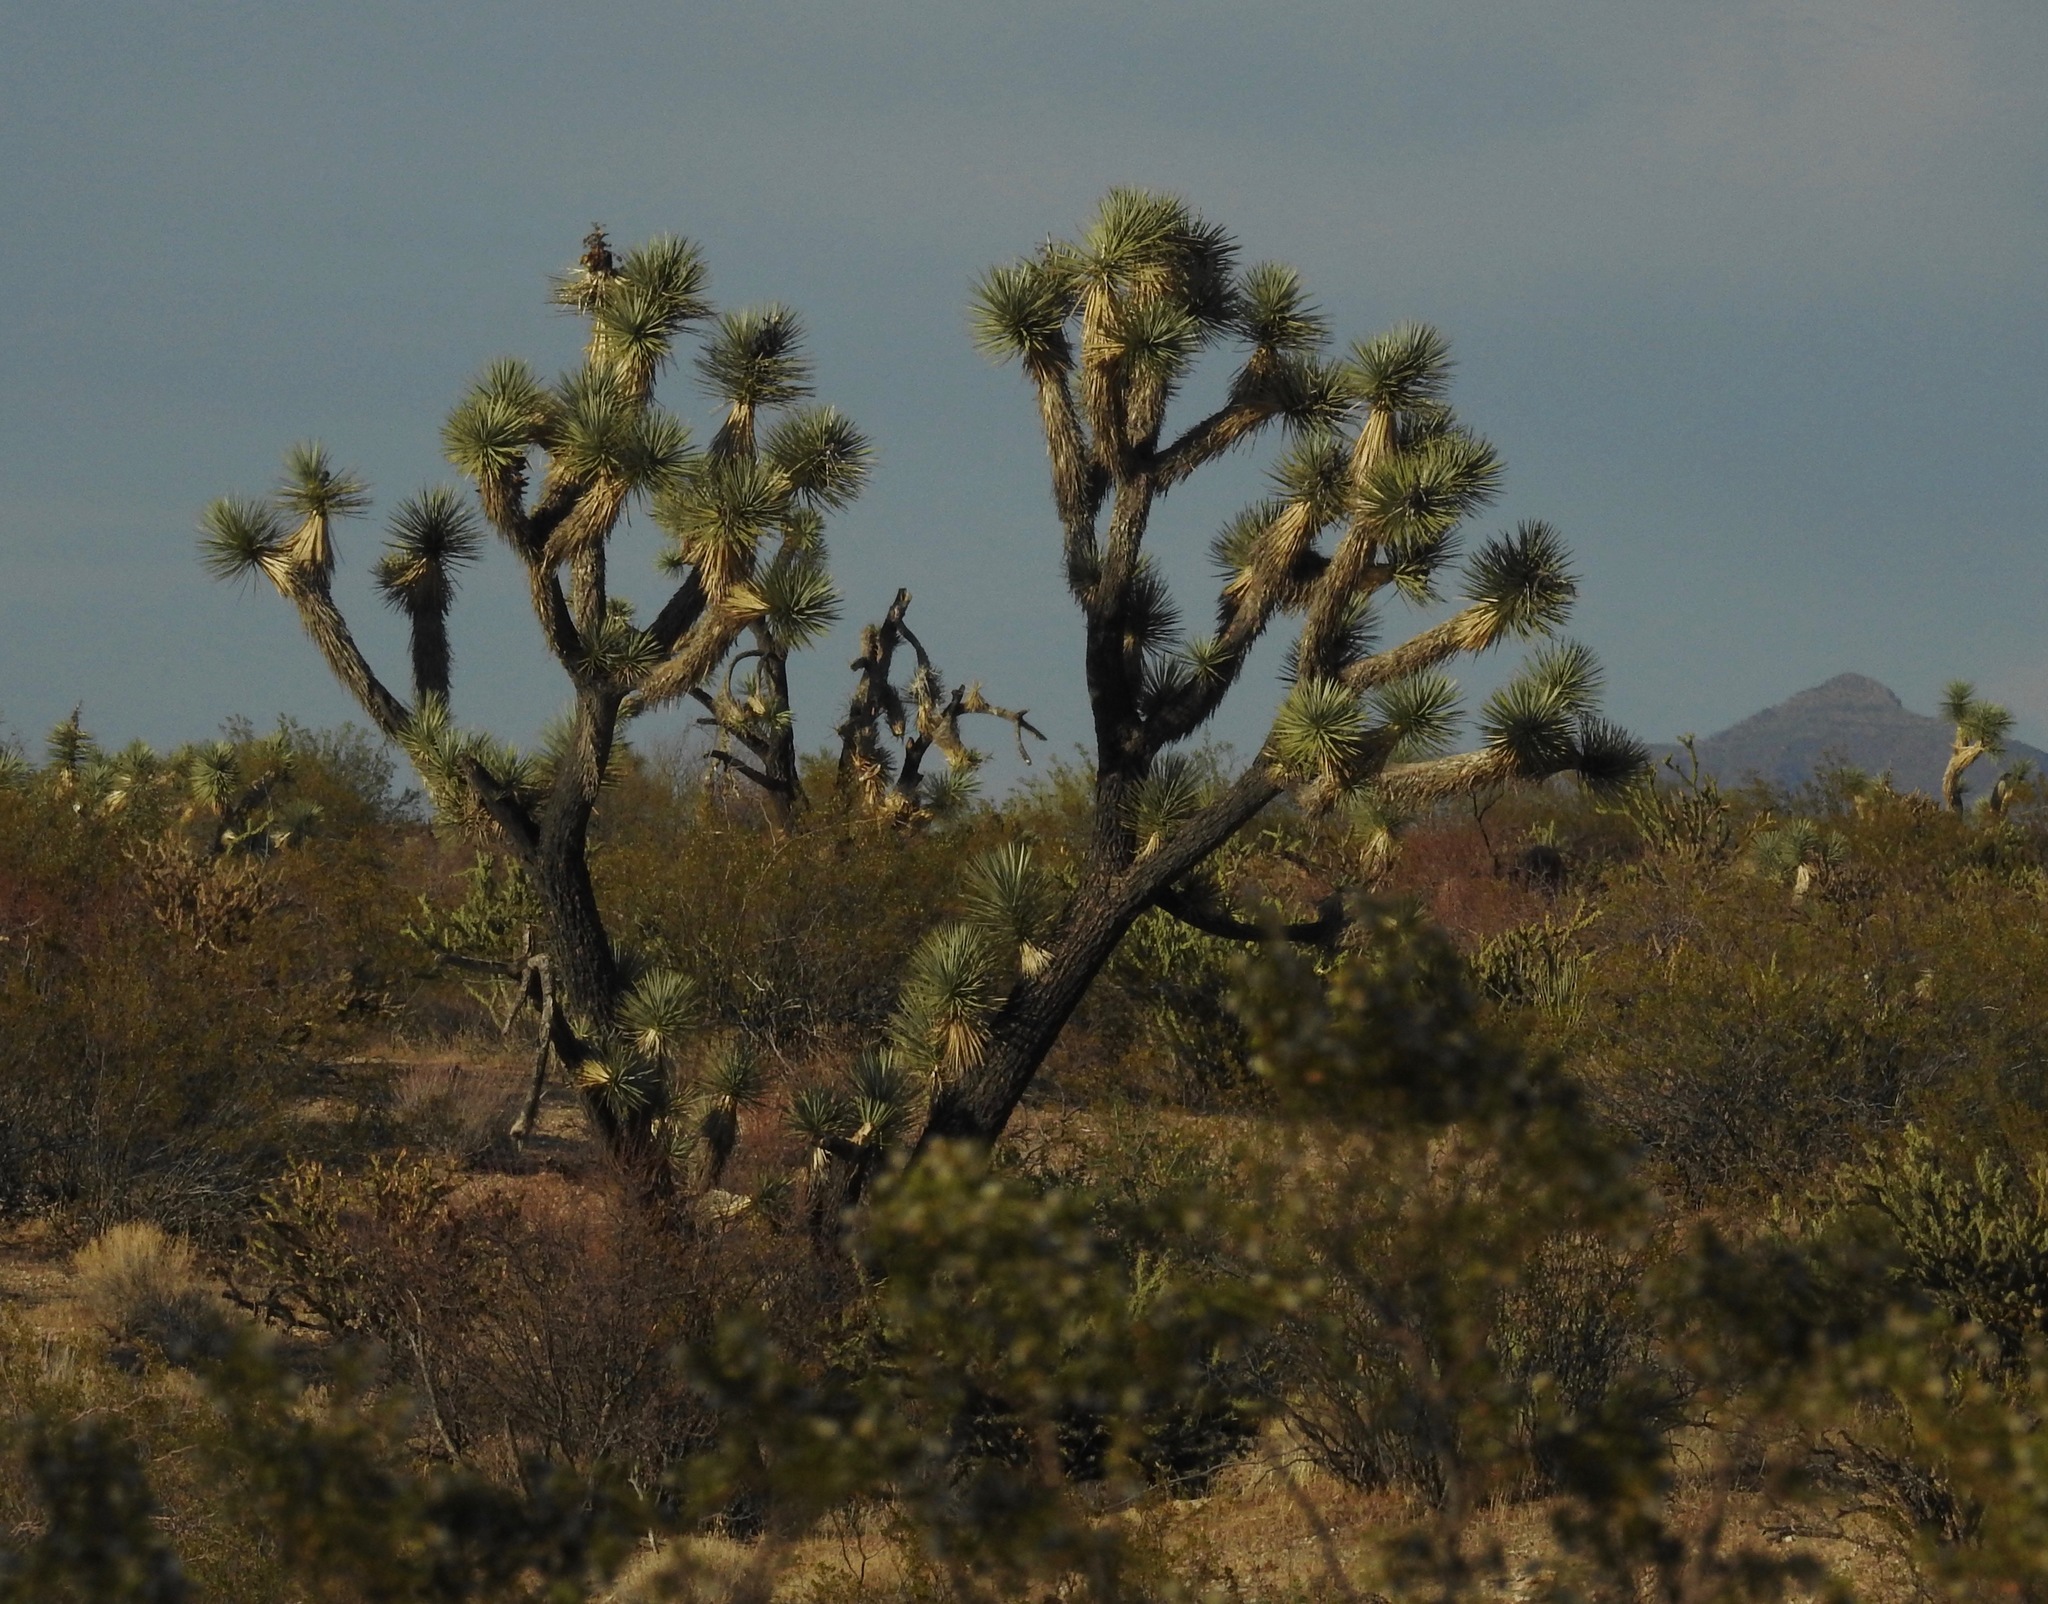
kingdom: Plantae
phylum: Tracheophyta
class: Liliopsida
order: Asparagales
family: Asparagaceae
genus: Yucca
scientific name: Yucca brevifolia
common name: Joshua tree
